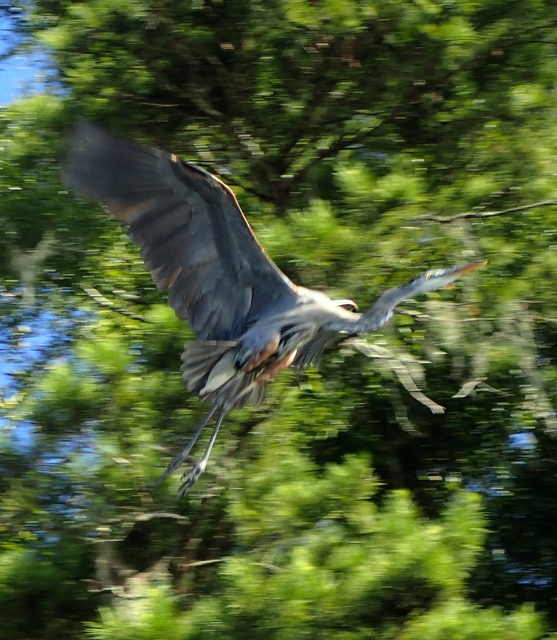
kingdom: Animalia
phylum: Chordata
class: Aves
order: Pelecaniformes
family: Ardeidae
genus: Ardea
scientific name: Ardea herodias
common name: Great blue heron
